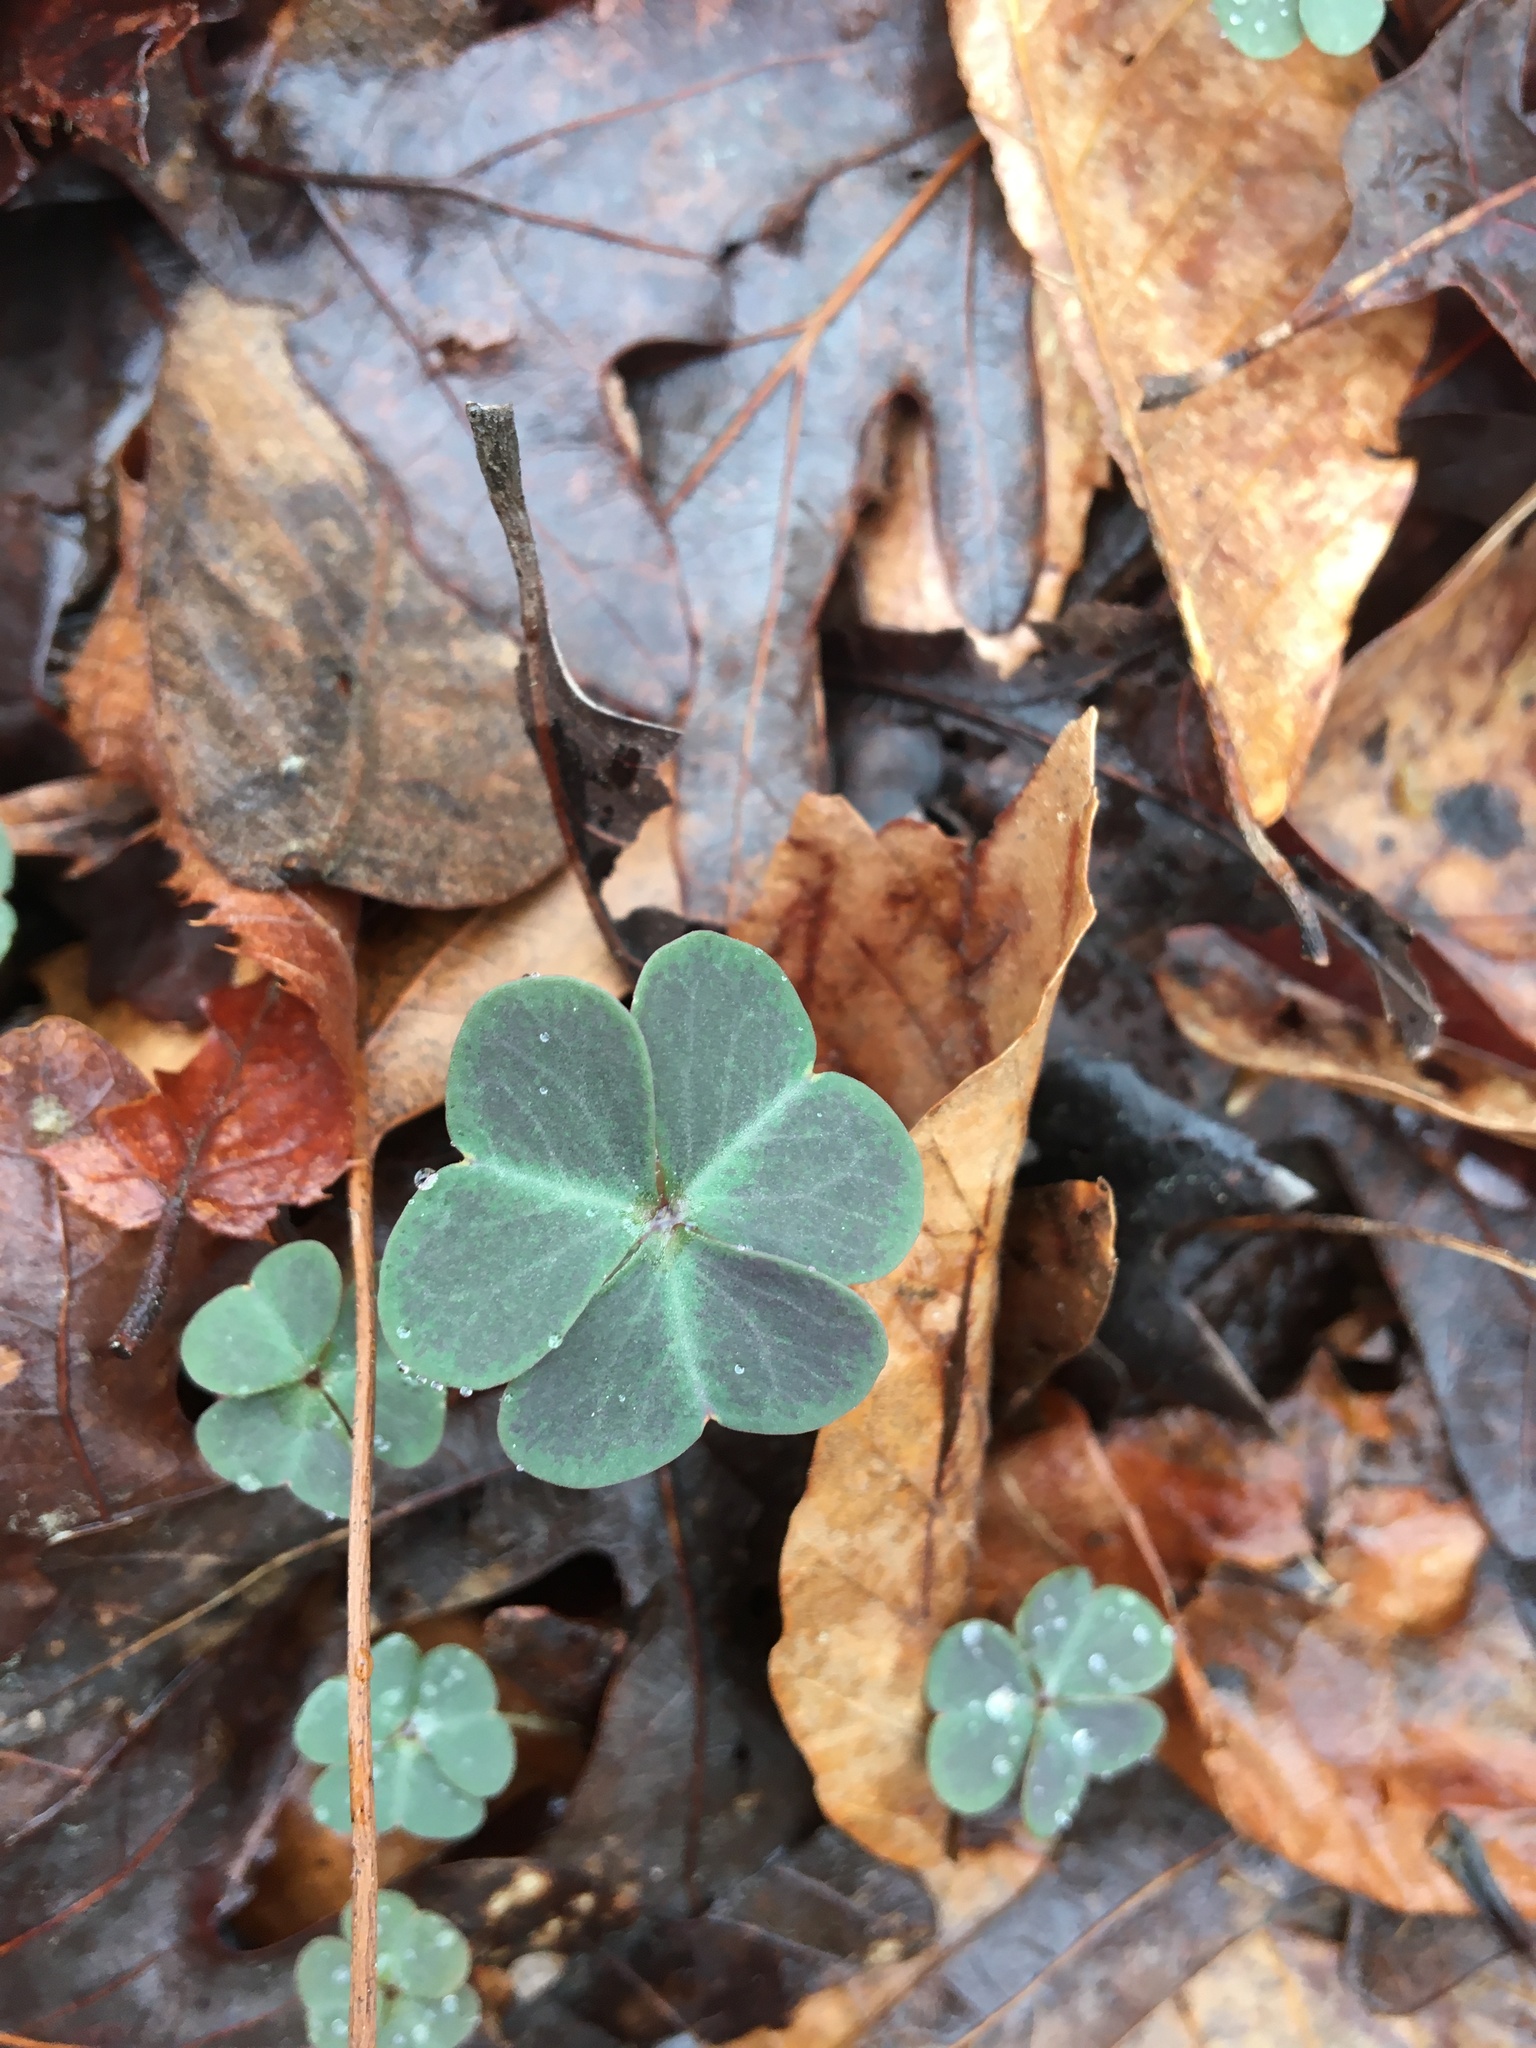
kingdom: Plantae
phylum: Tracheophyta
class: Magnoliopsida
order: Oxalidales
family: Oxalidaceae
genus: Oxalis
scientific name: Oxalis violacea
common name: Violet wood-sorrel
